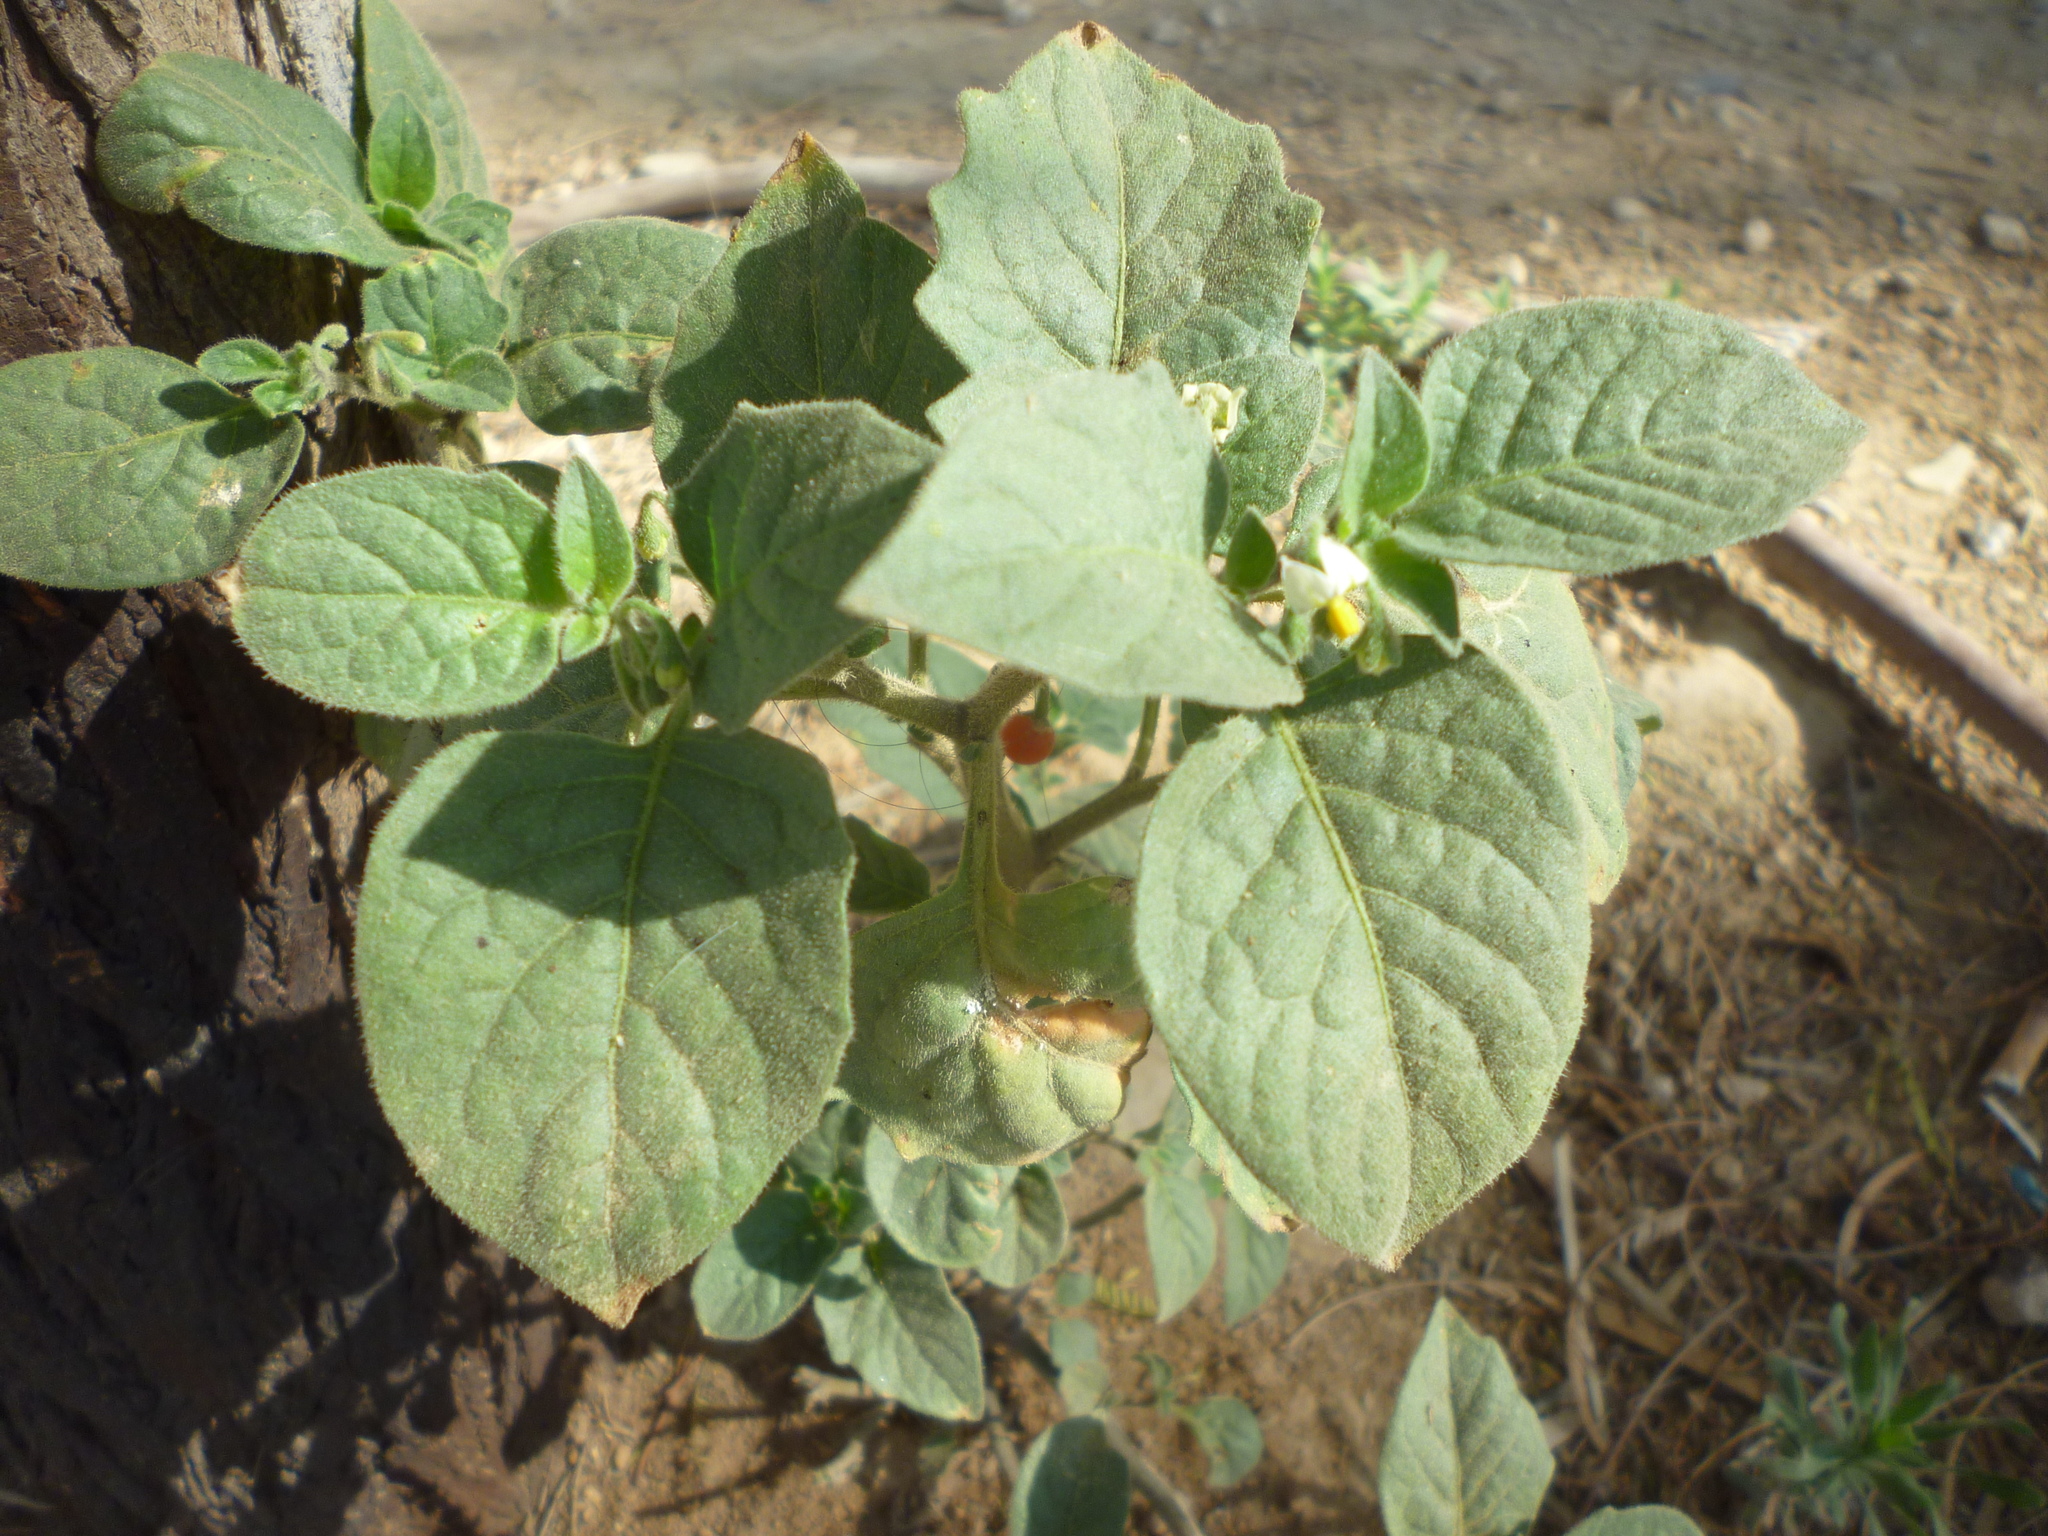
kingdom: Plantae
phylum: Tracheophyta
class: Magnoliopsida
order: Solanales
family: Solanaceae
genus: Solanum
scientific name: Solanum villosum
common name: Red nightshade
